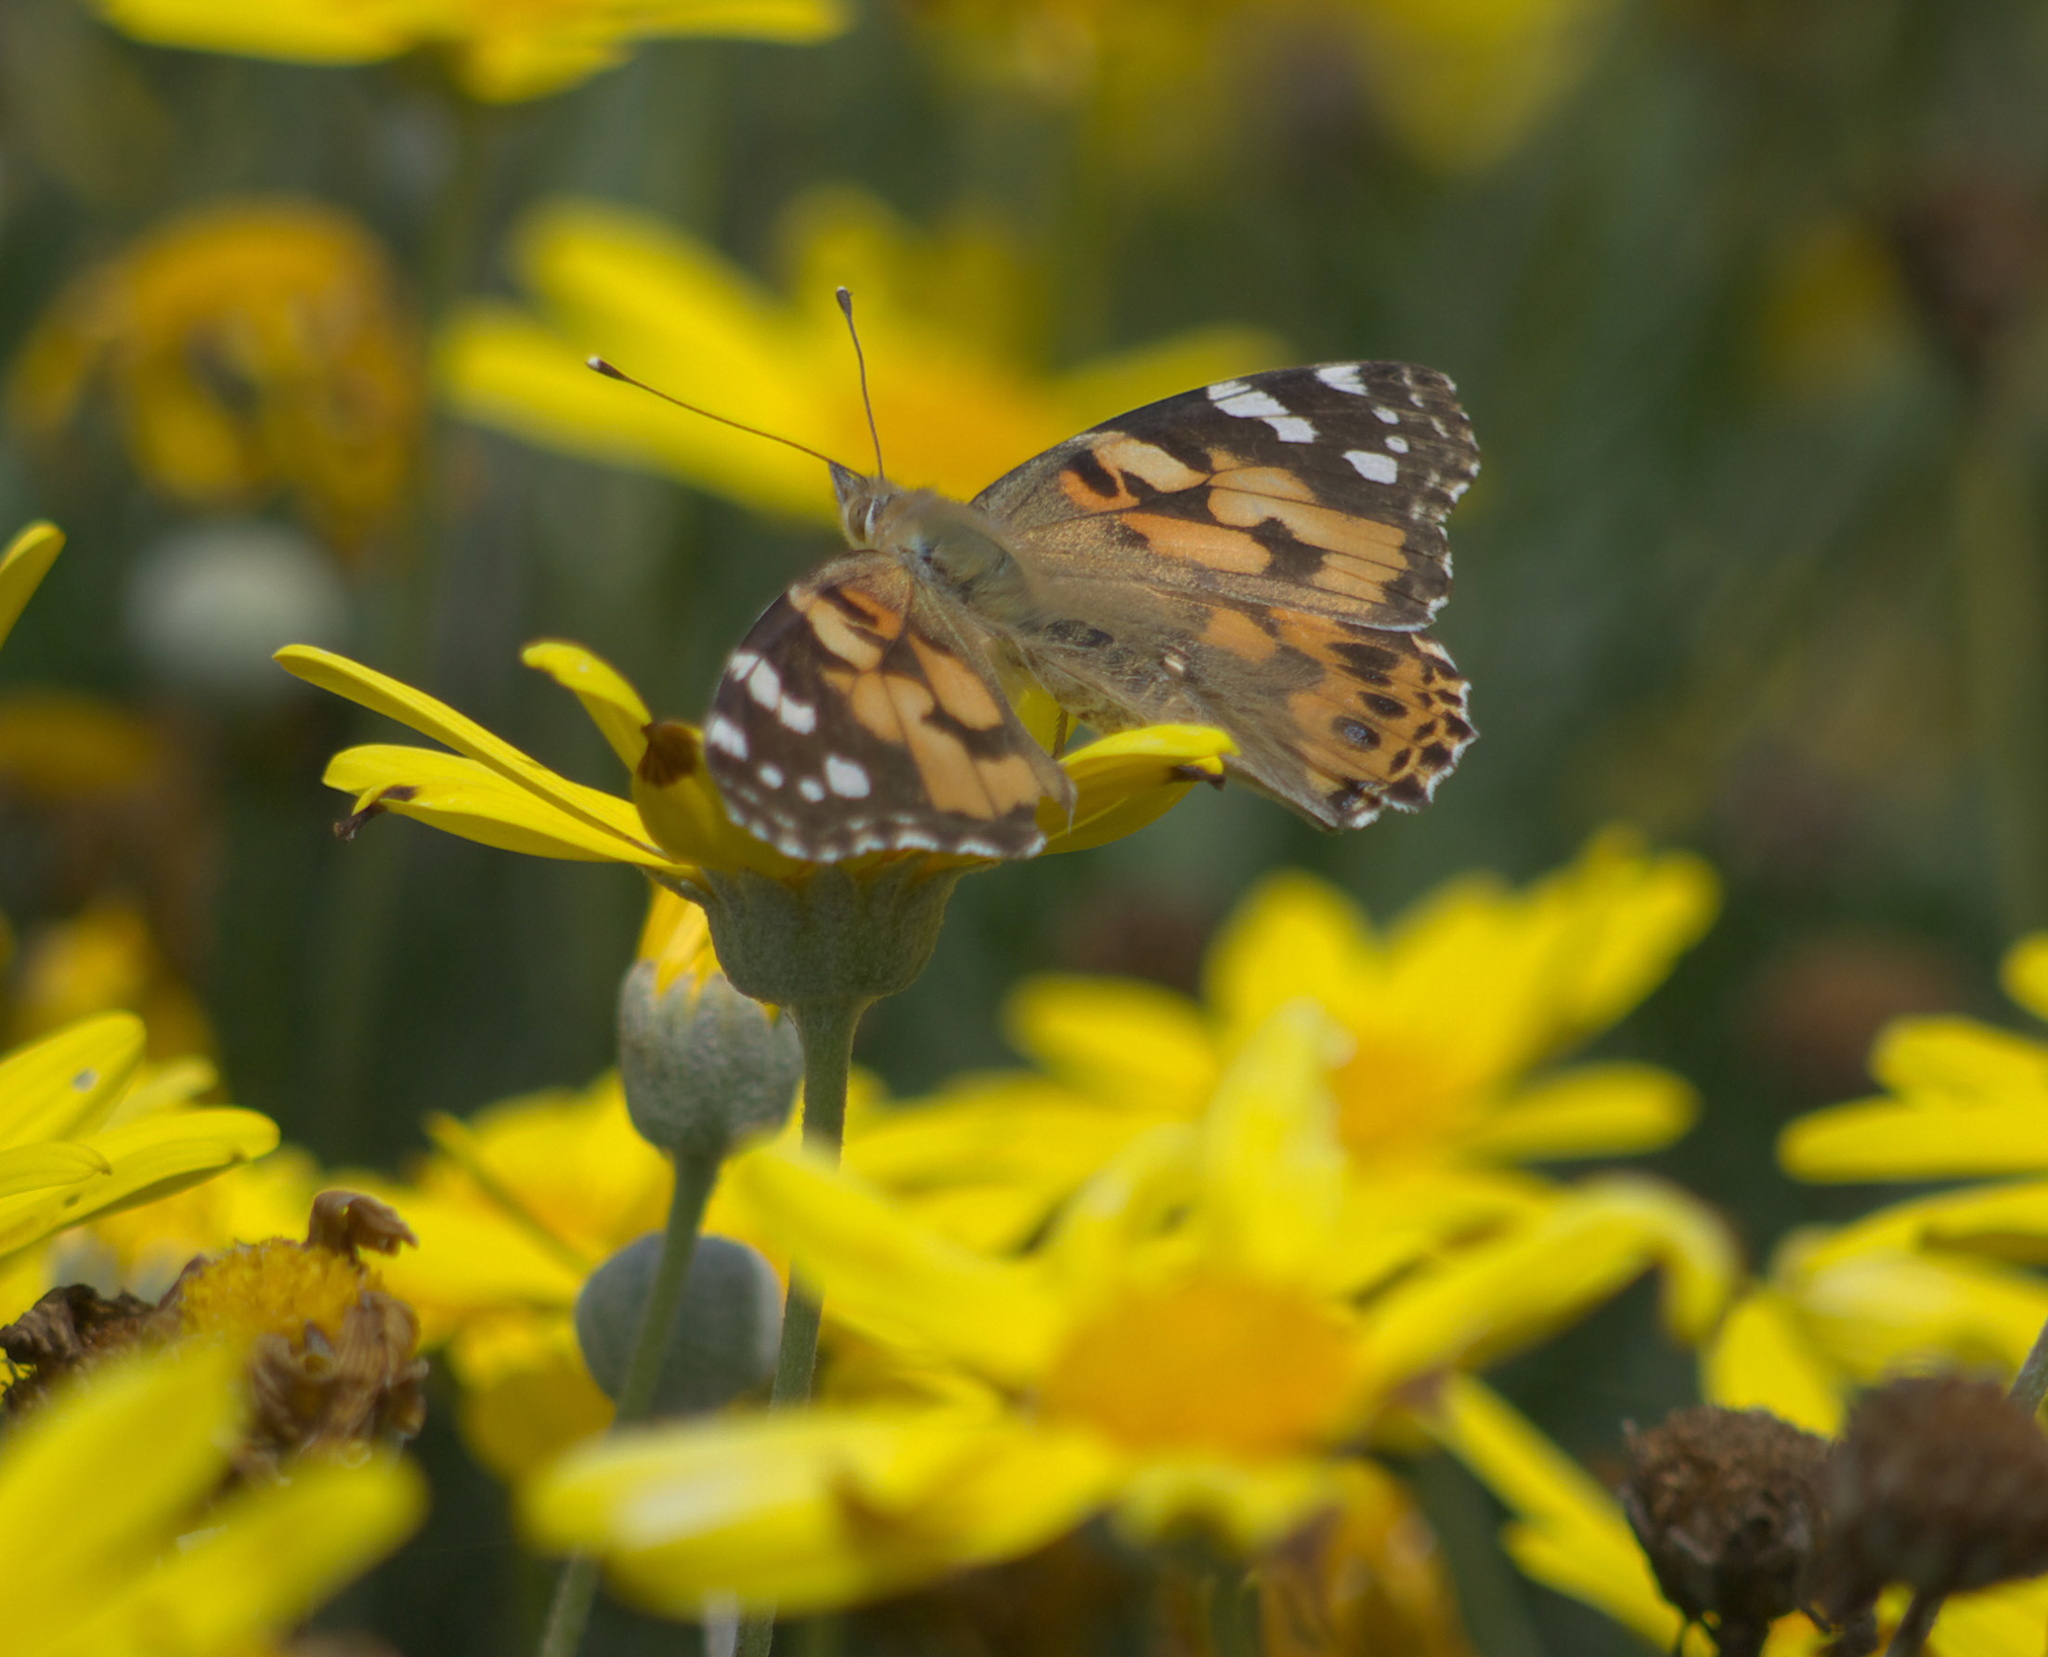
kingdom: Animalia
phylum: Arthropoda
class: Insecta
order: Lepidoptera
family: Nymphalidae
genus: Vanessa
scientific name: Vanessa cardui
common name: Painted lady
